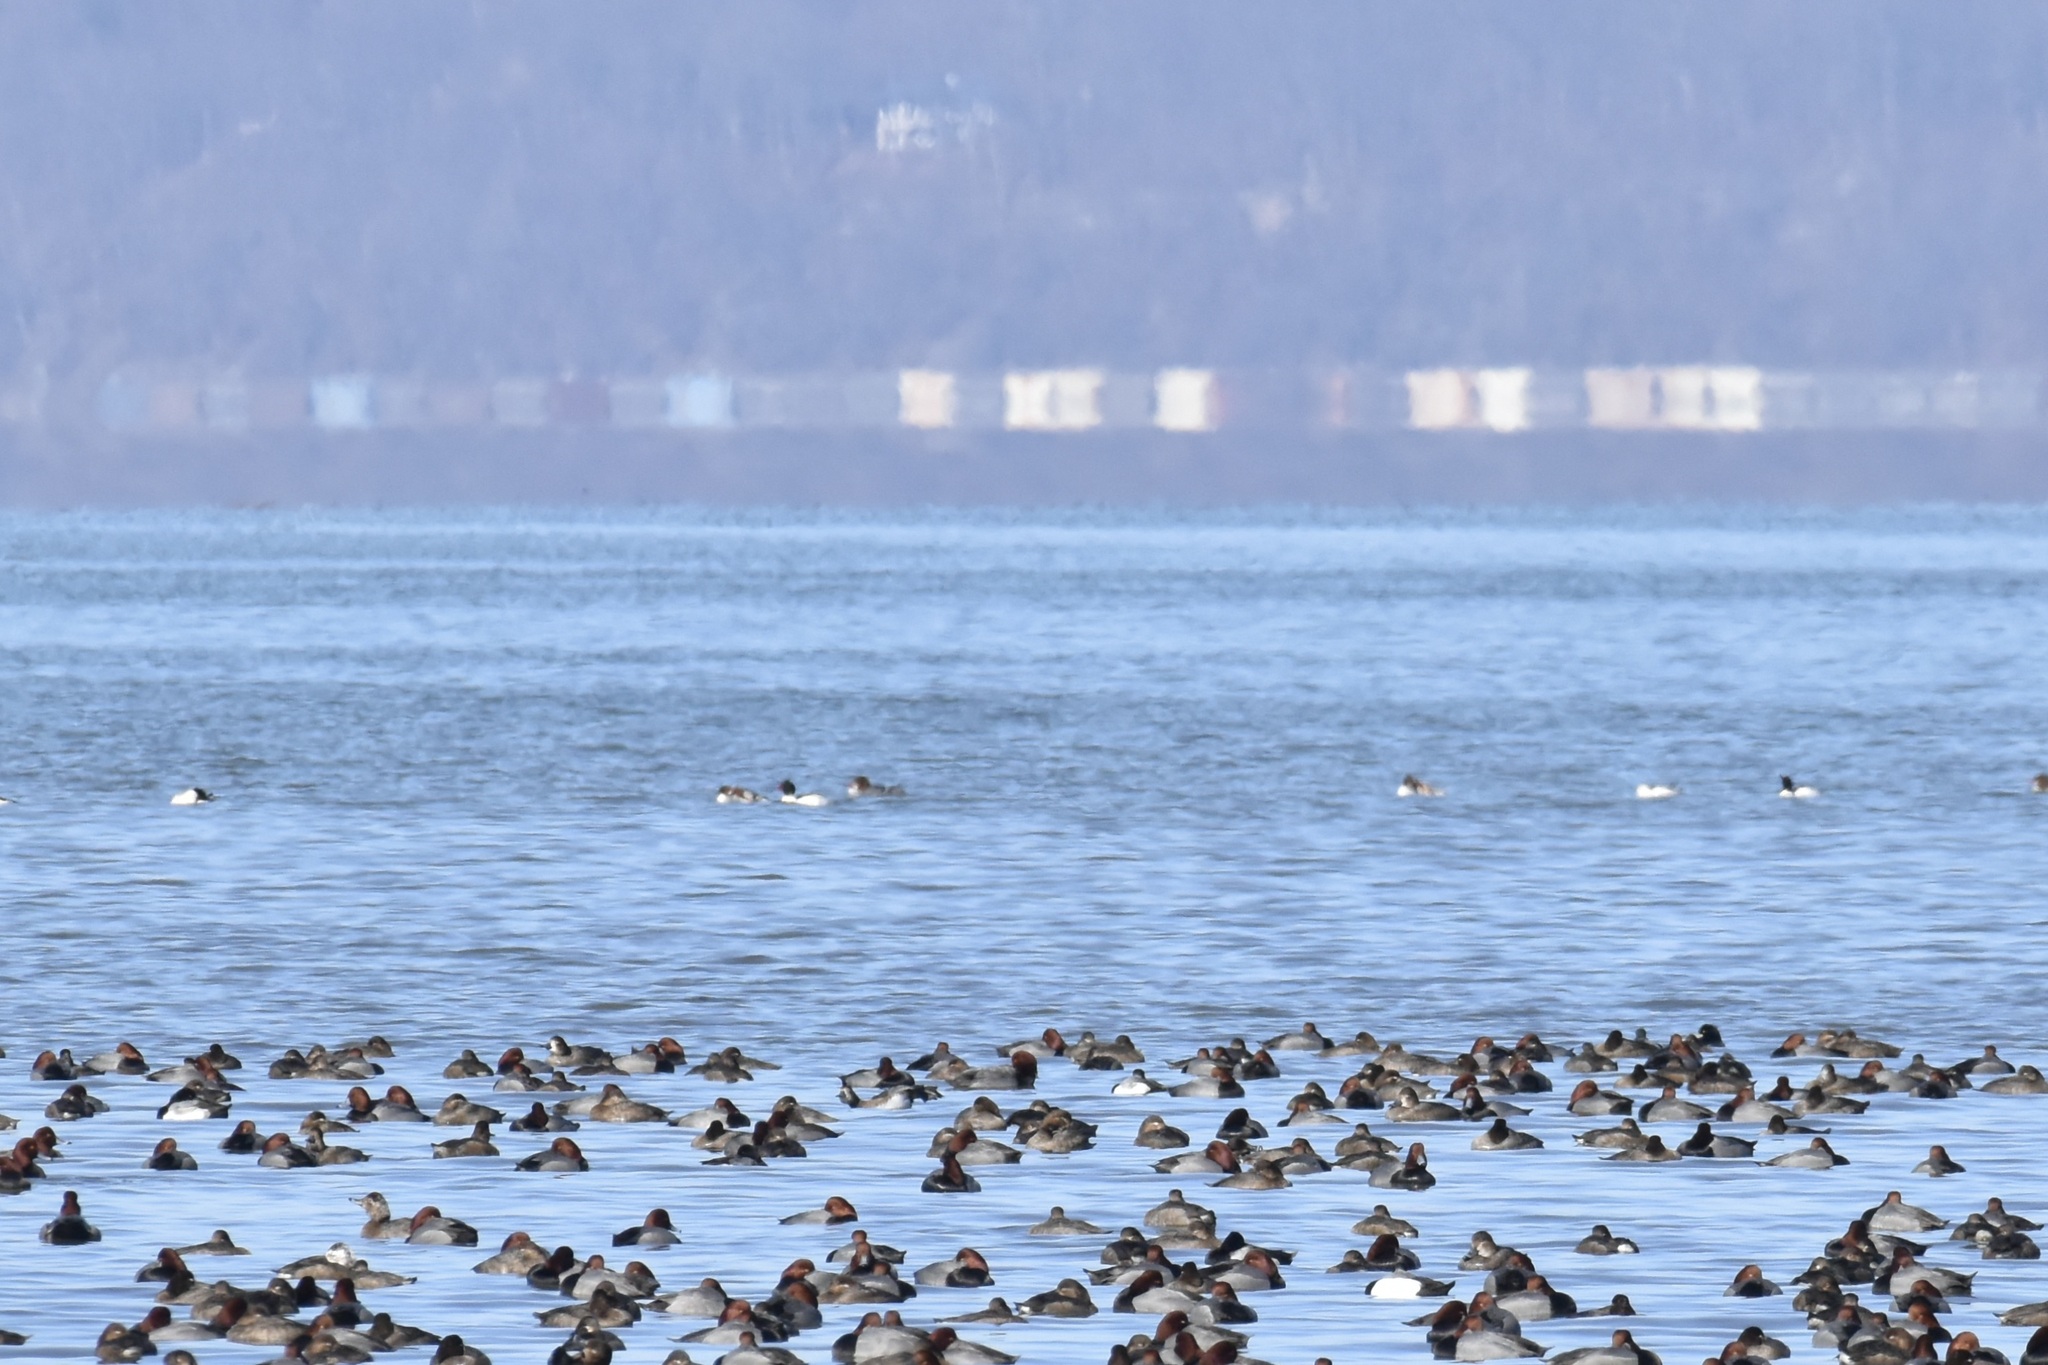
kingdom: Animalia
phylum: Chordata
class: Aves
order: Anseriformes
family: Anatidae
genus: Mergus
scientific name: Mergus merganser
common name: Common merganser
